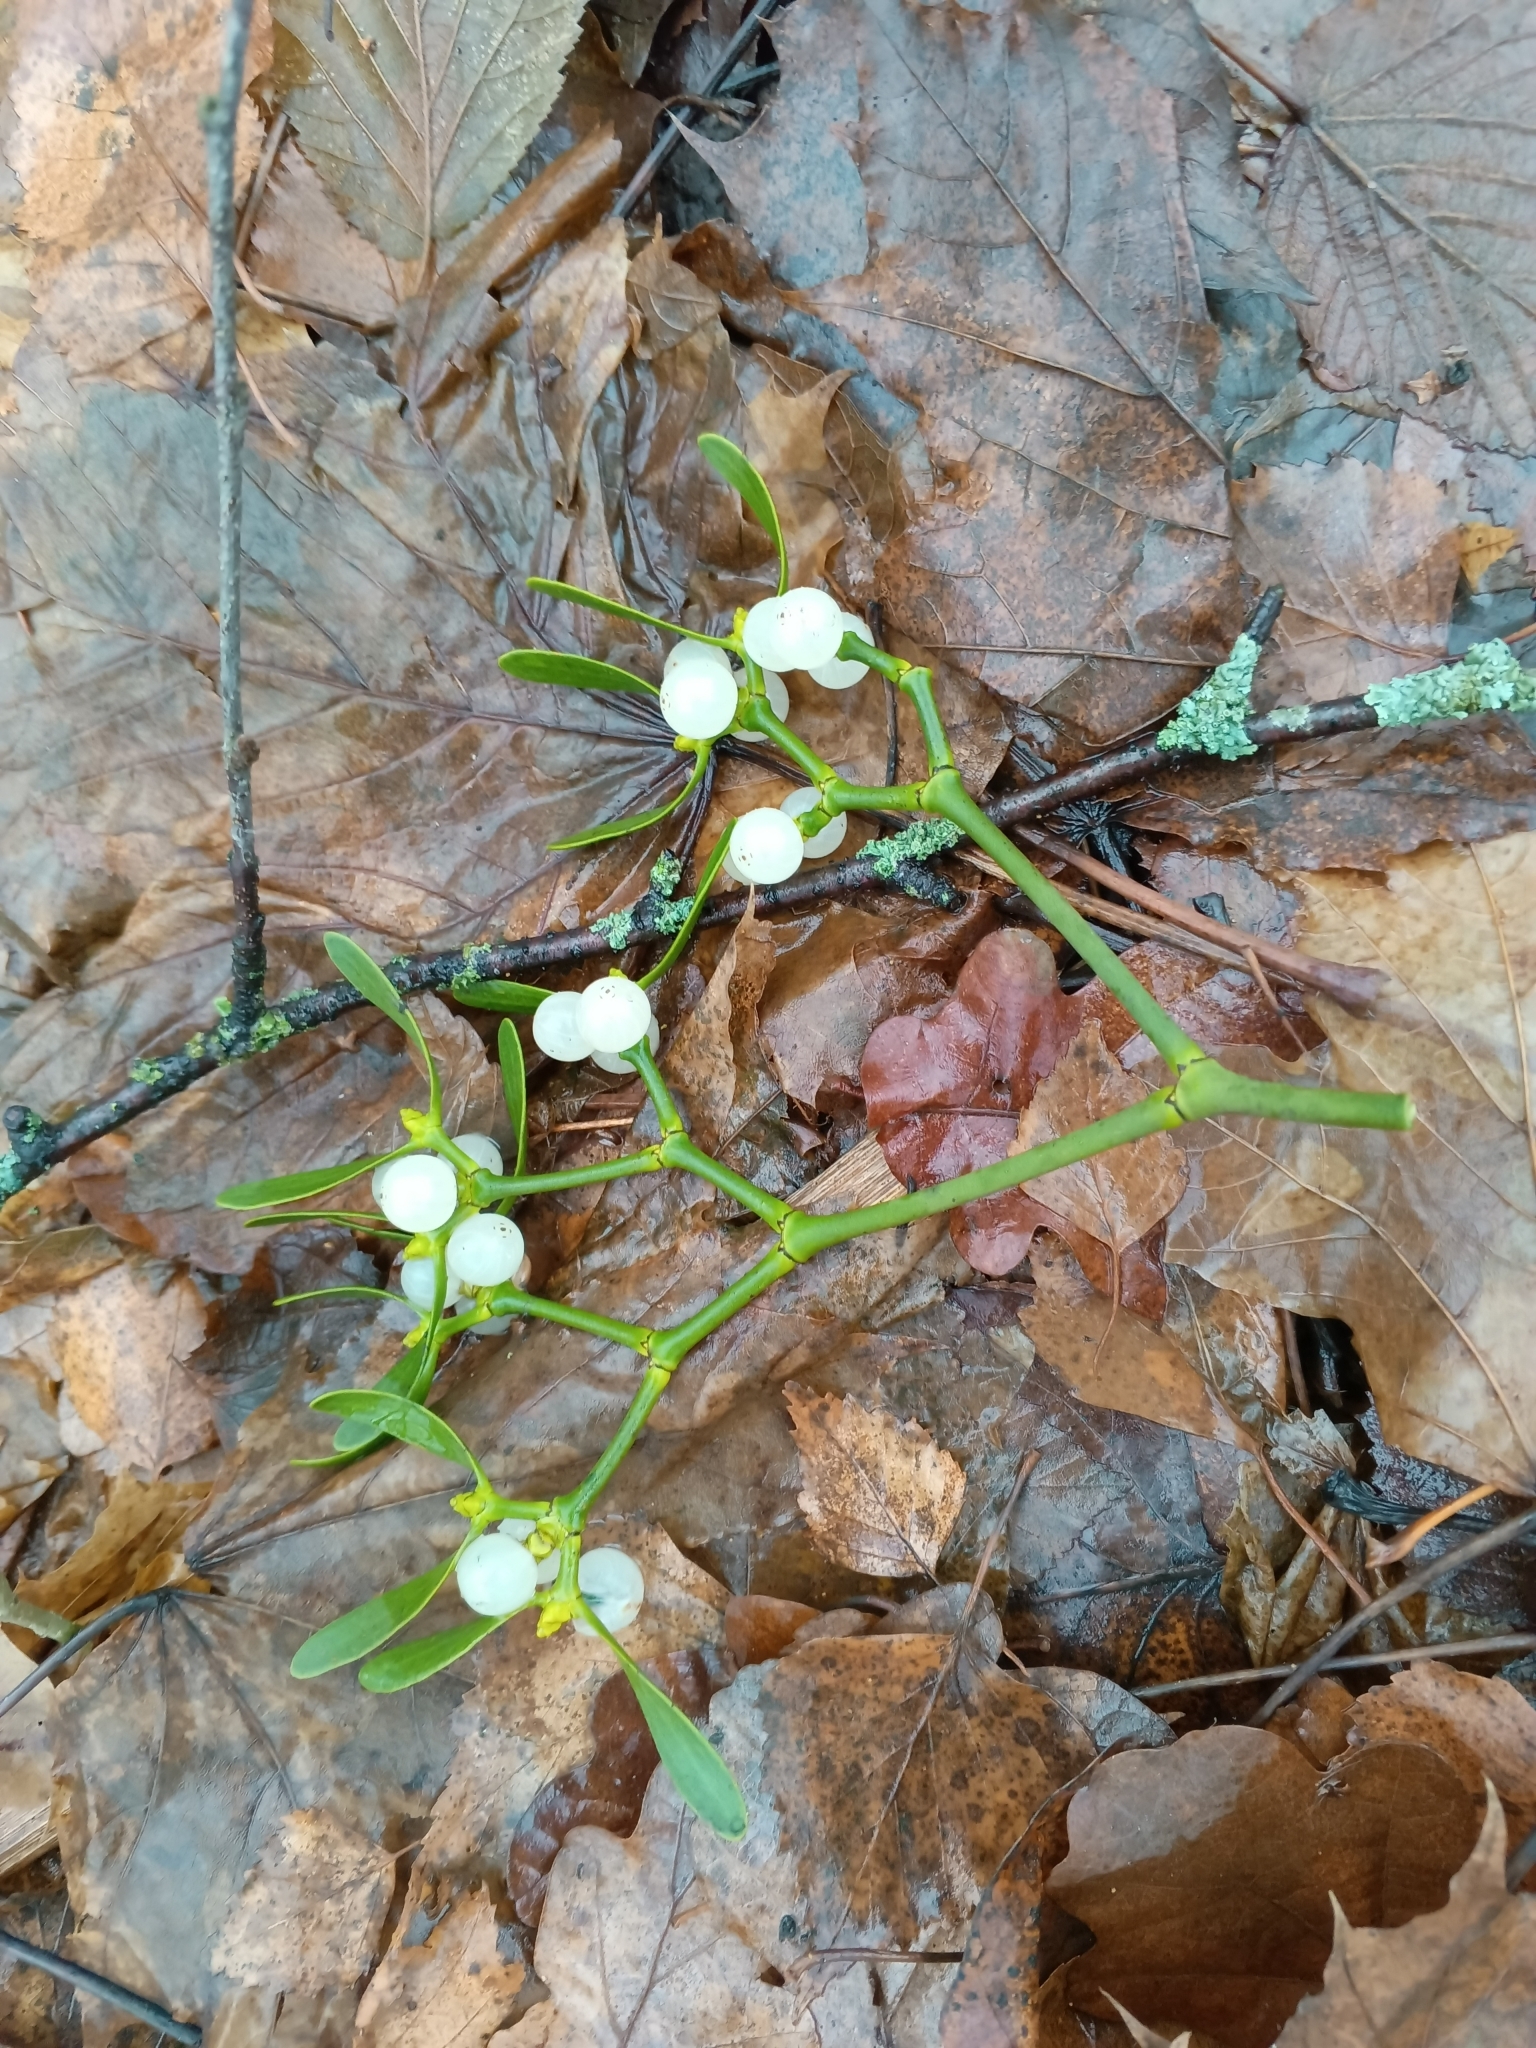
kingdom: Plantae
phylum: Tracheophyta
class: Magnoliopsida
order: Santalales
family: Viscaceae
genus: Viscum
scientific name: Viscum album
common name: Mistletoe
